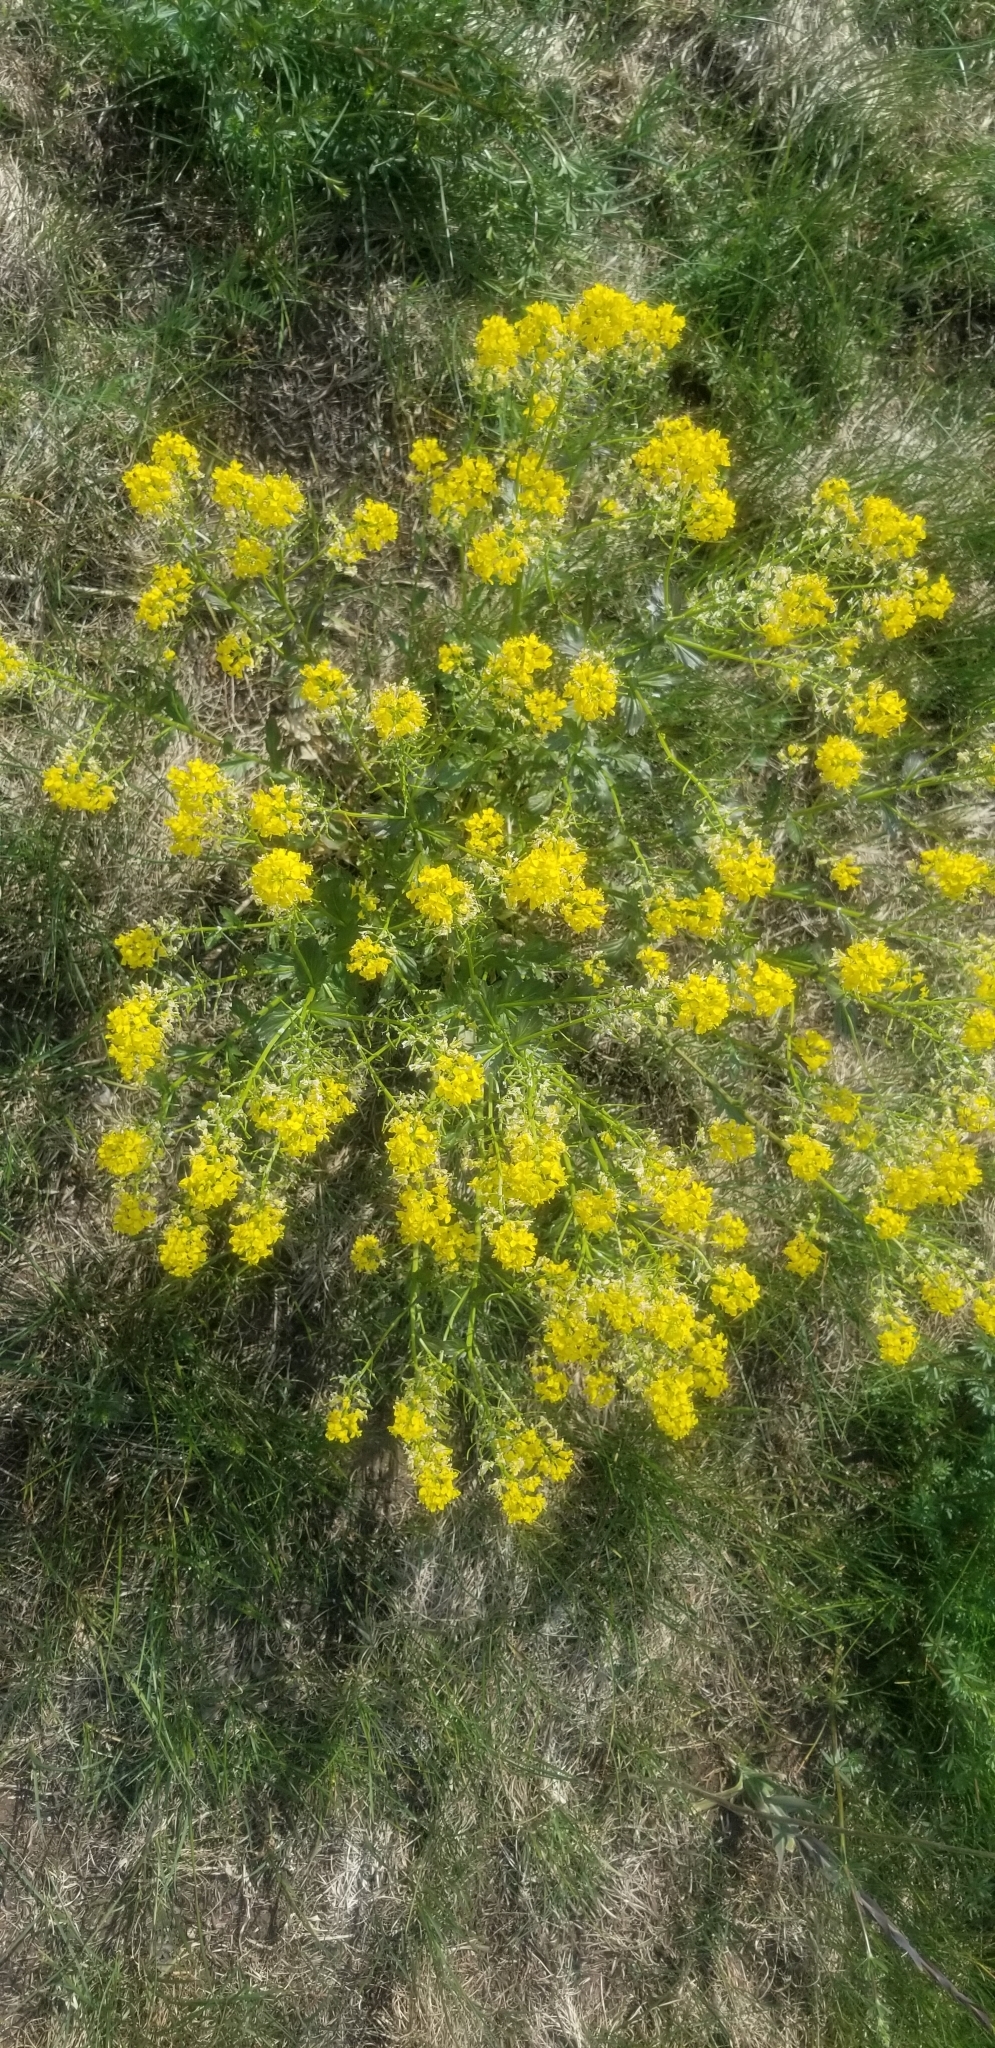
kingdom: Plantae
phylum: Tracheophyta
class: Magnoliopsida
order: Brassicales
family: Brassicaceae
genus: Barbarea
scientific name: Barbarea vulgaris
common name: Cressy-greens
